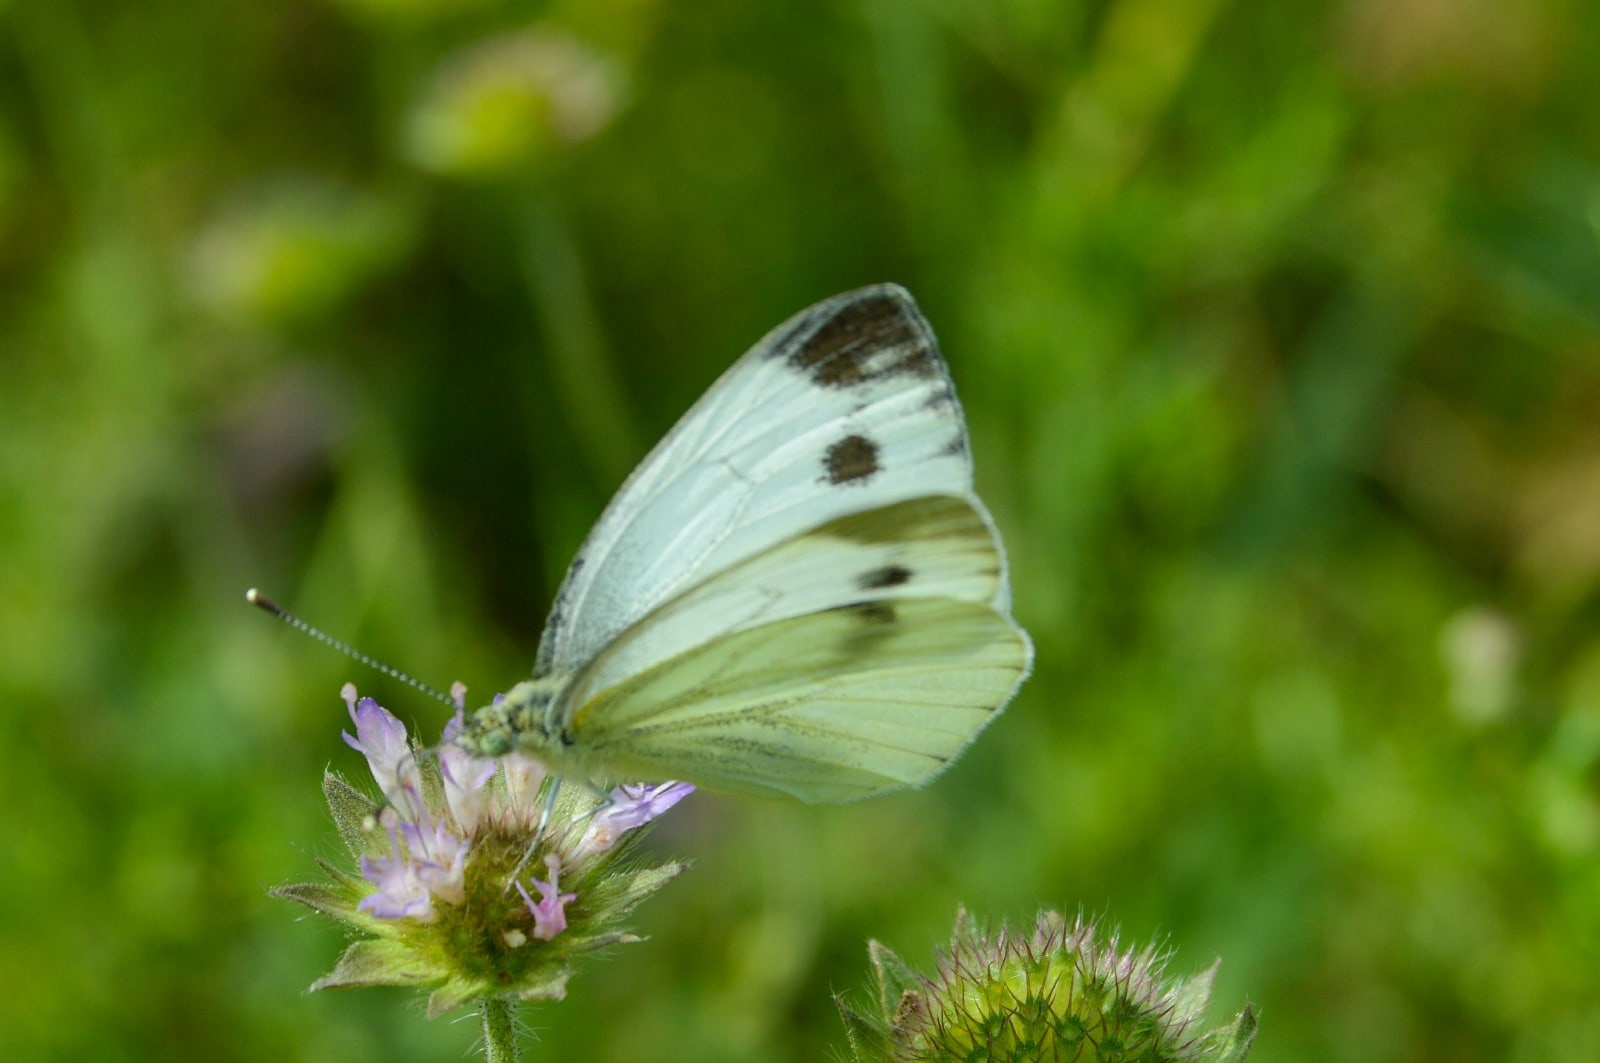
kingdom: Animalia
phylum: Arthropoda
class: Insecta
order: Lepidoptera
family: Pieridae
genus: Pieris
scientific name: Pieris napi
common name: Green-veined white
